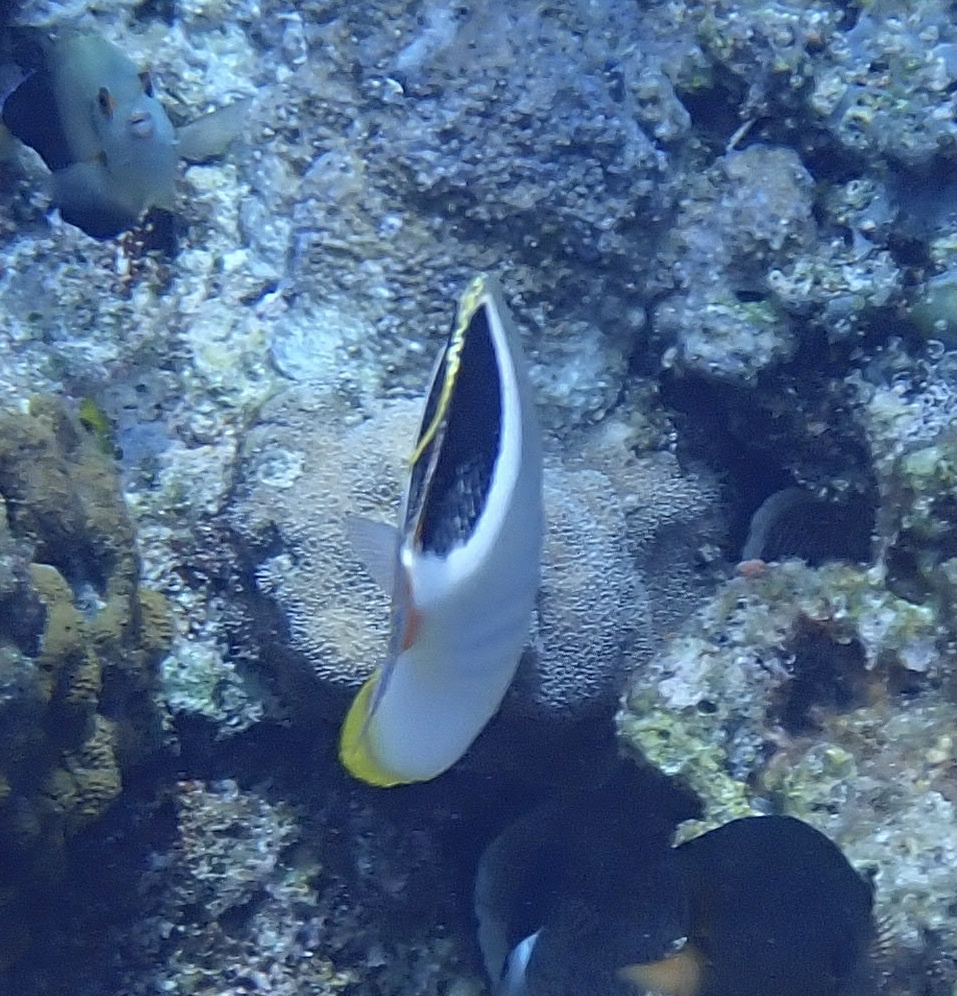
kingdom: Animalia
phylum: Chordata
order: Perciformes
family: Chaetodontidae
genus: Chaetodon
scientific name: Chaetodon ephippium
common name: Saddled butterflyfish
